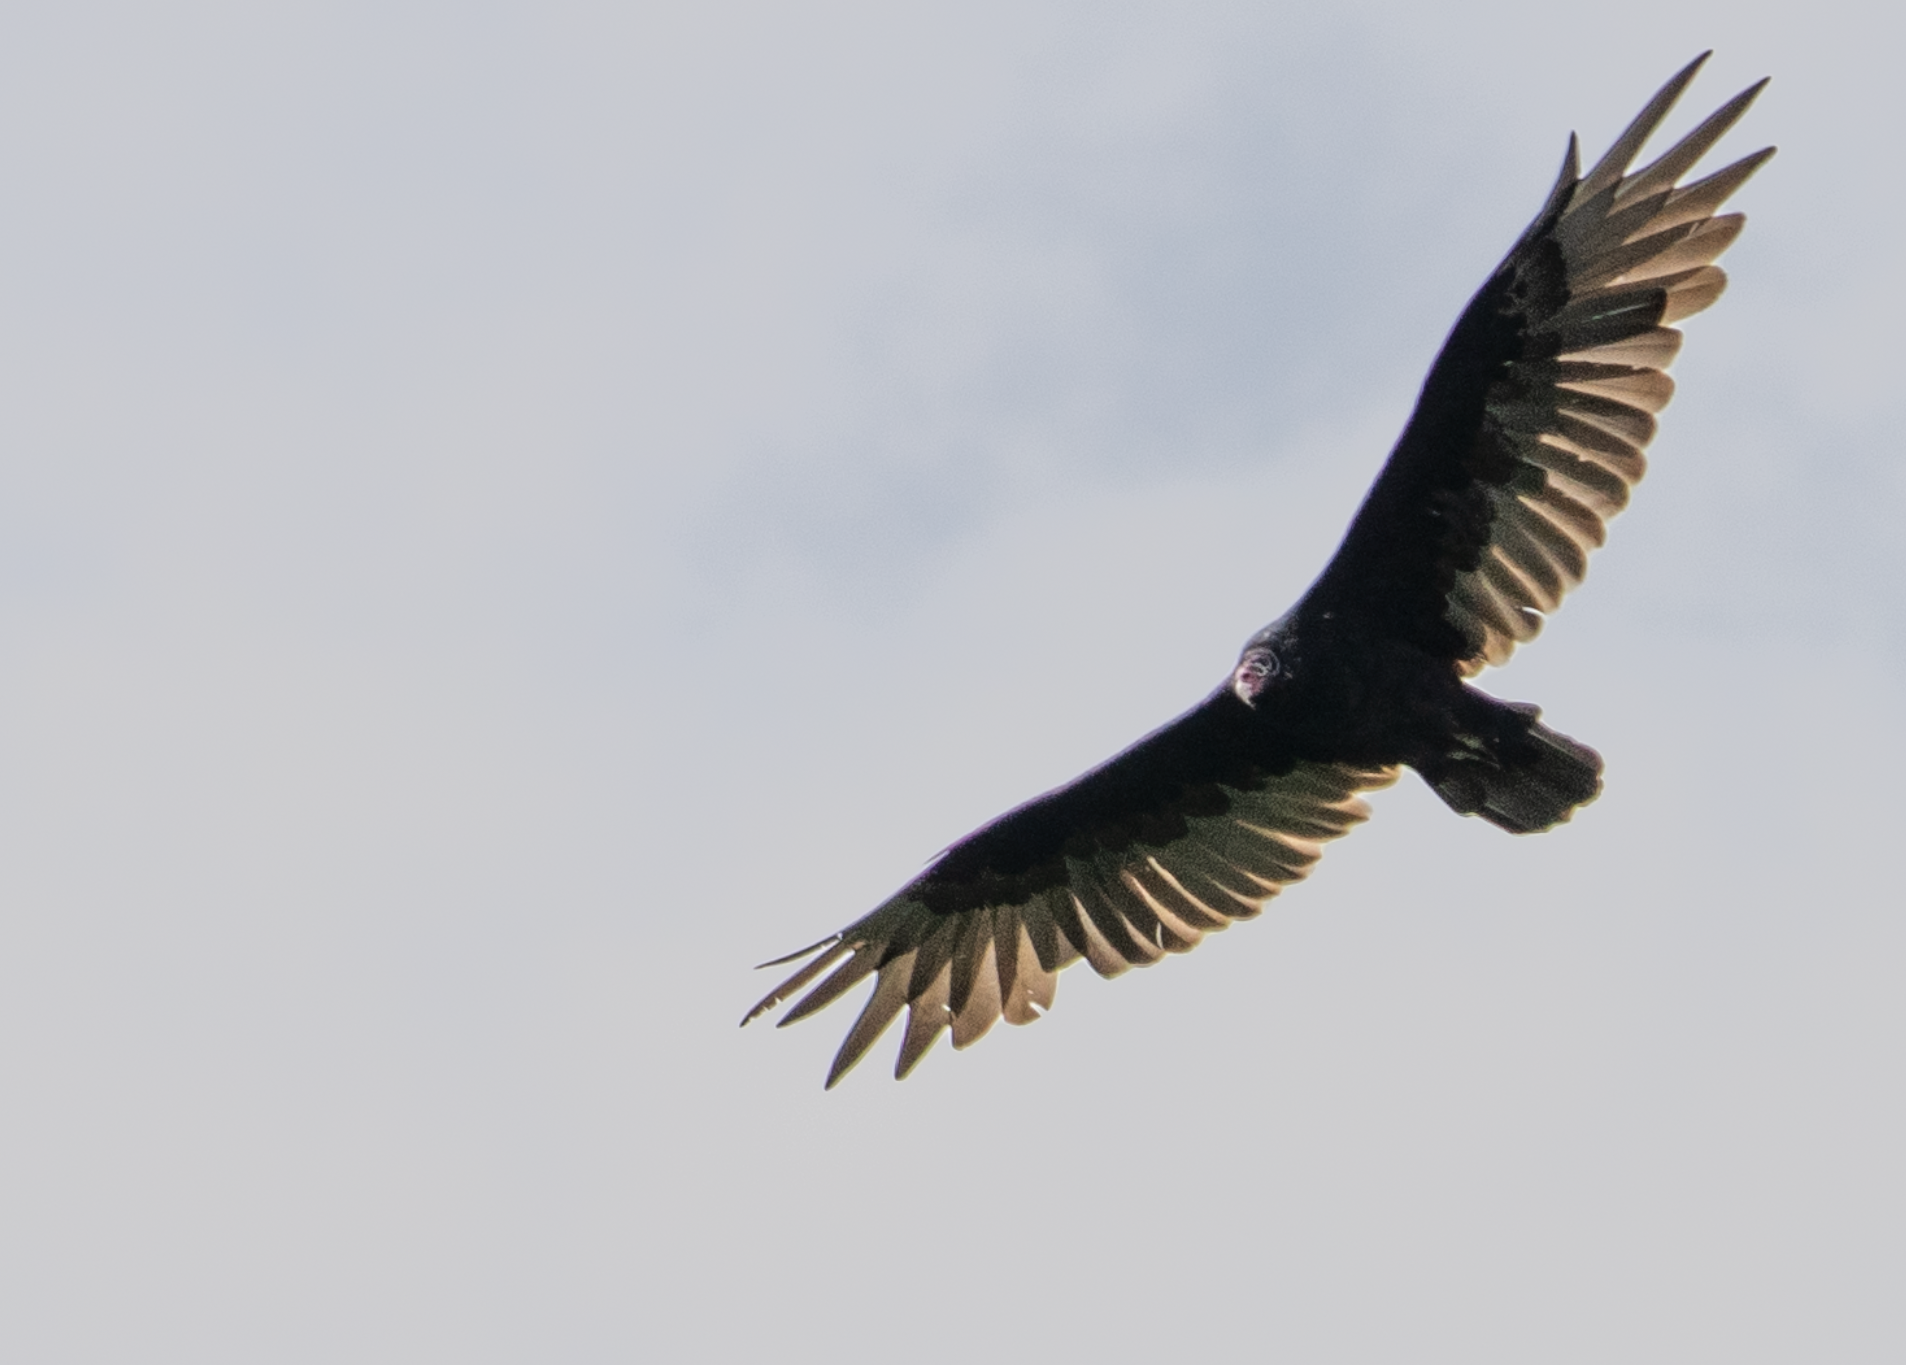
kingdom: Animalia
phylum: Chordata
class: Aves
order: Accipitriformes
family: Cathartidae
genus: Cathartes
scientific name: Cathartes aura
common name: Turkey vulture
